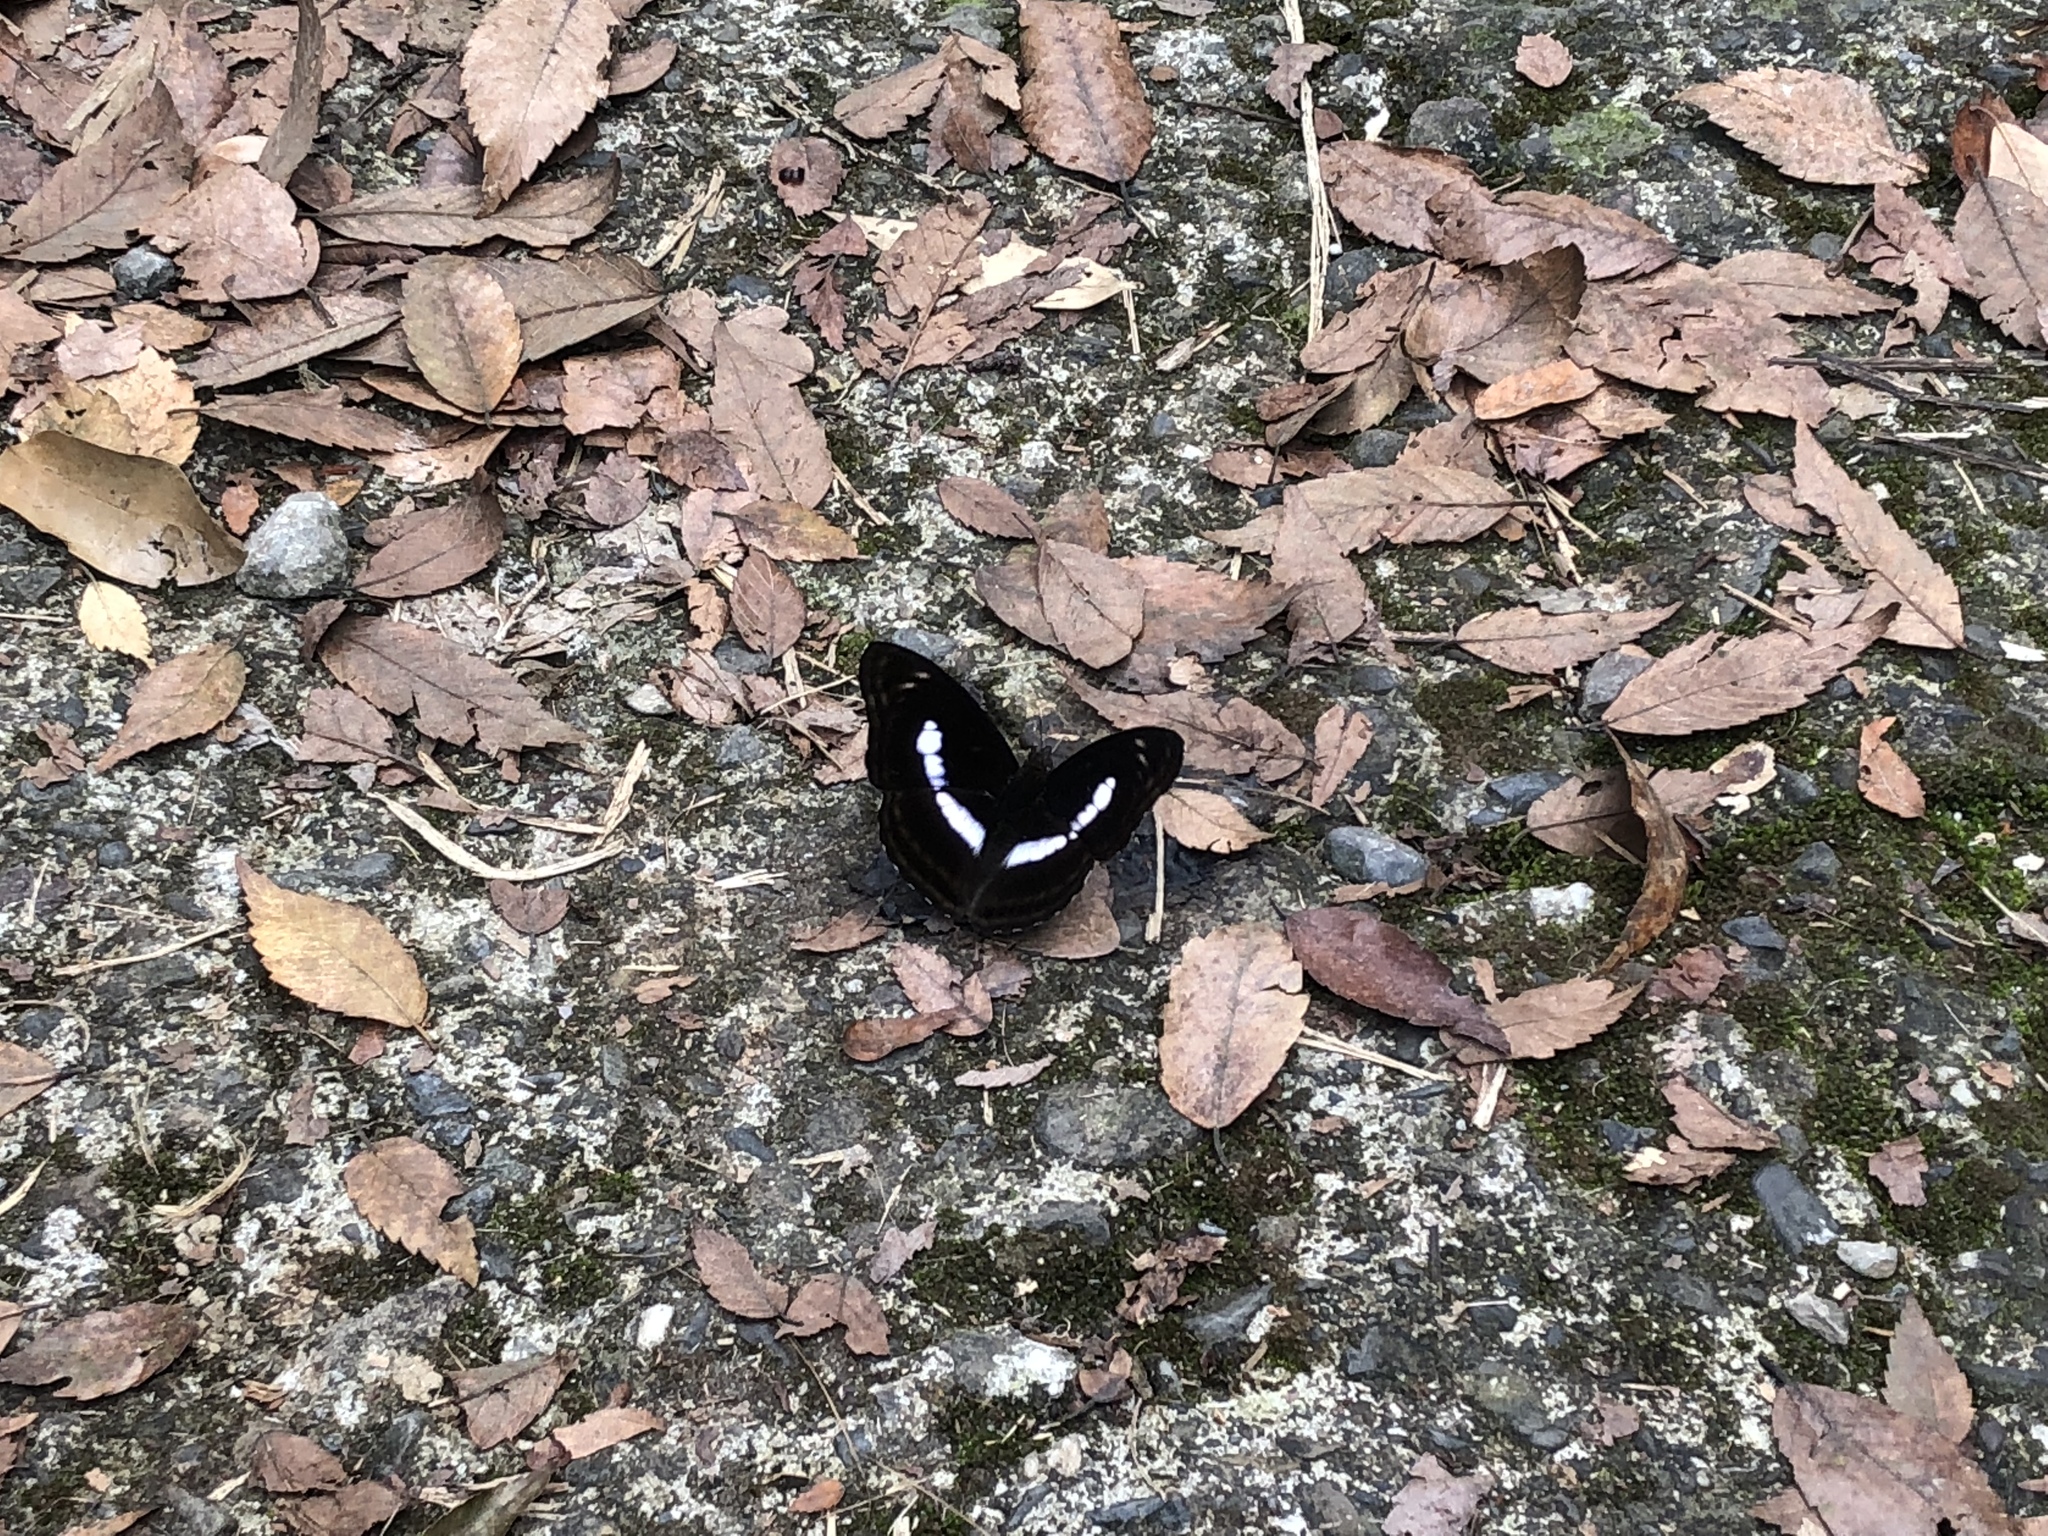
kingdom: Animalia
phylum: Arthropoda
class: Insecta
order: Lepidoptera
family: Nymphalidae
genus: Parathyma
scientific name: Parathyma selenophora
